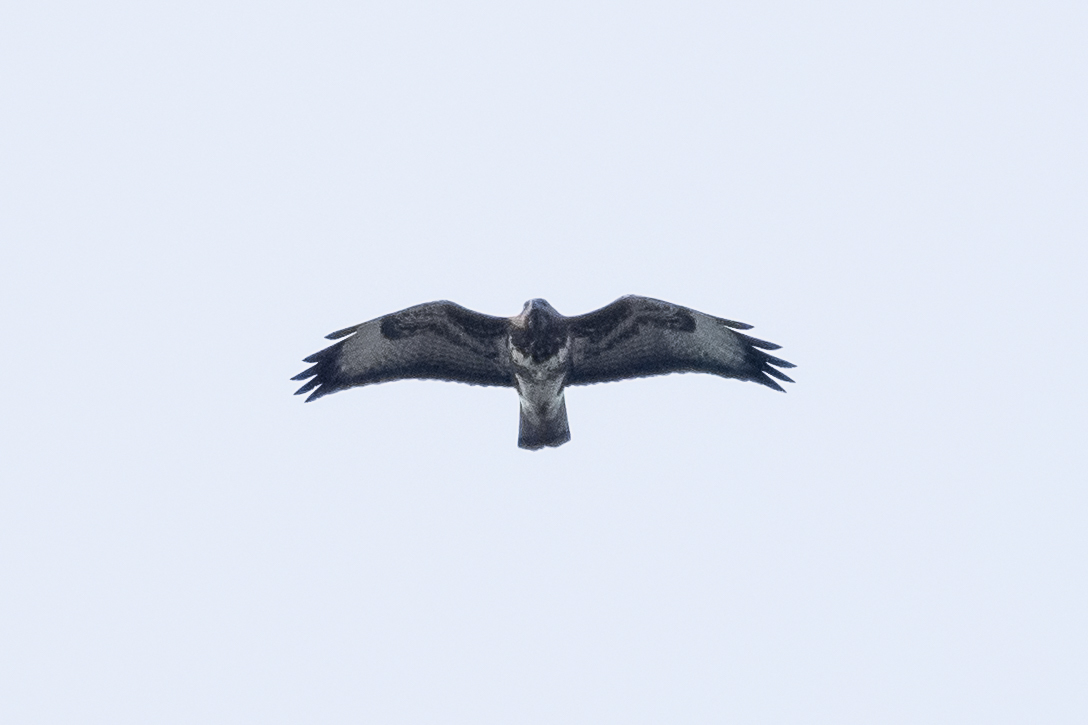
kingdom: Animalia
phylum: Chordata
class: Aves
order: Accipitriformes
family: Accipitridae
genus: Buteo
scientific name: Buteo buteo
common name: Common buzzard
